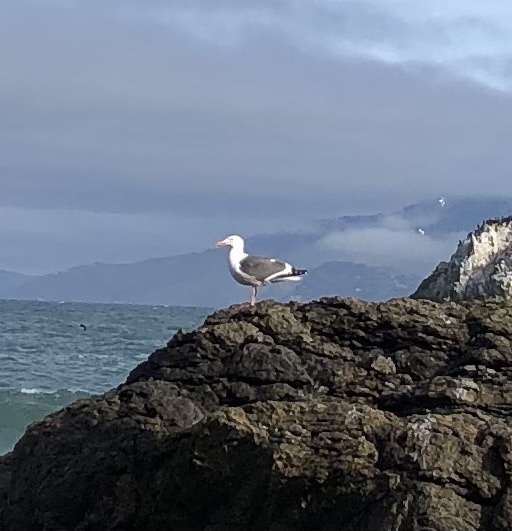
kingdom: Animalia
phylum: Chordata
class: Aves
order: Charadriiformes
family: Laridae
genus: Larus
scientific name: Larus occidentalis
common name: Western gull
